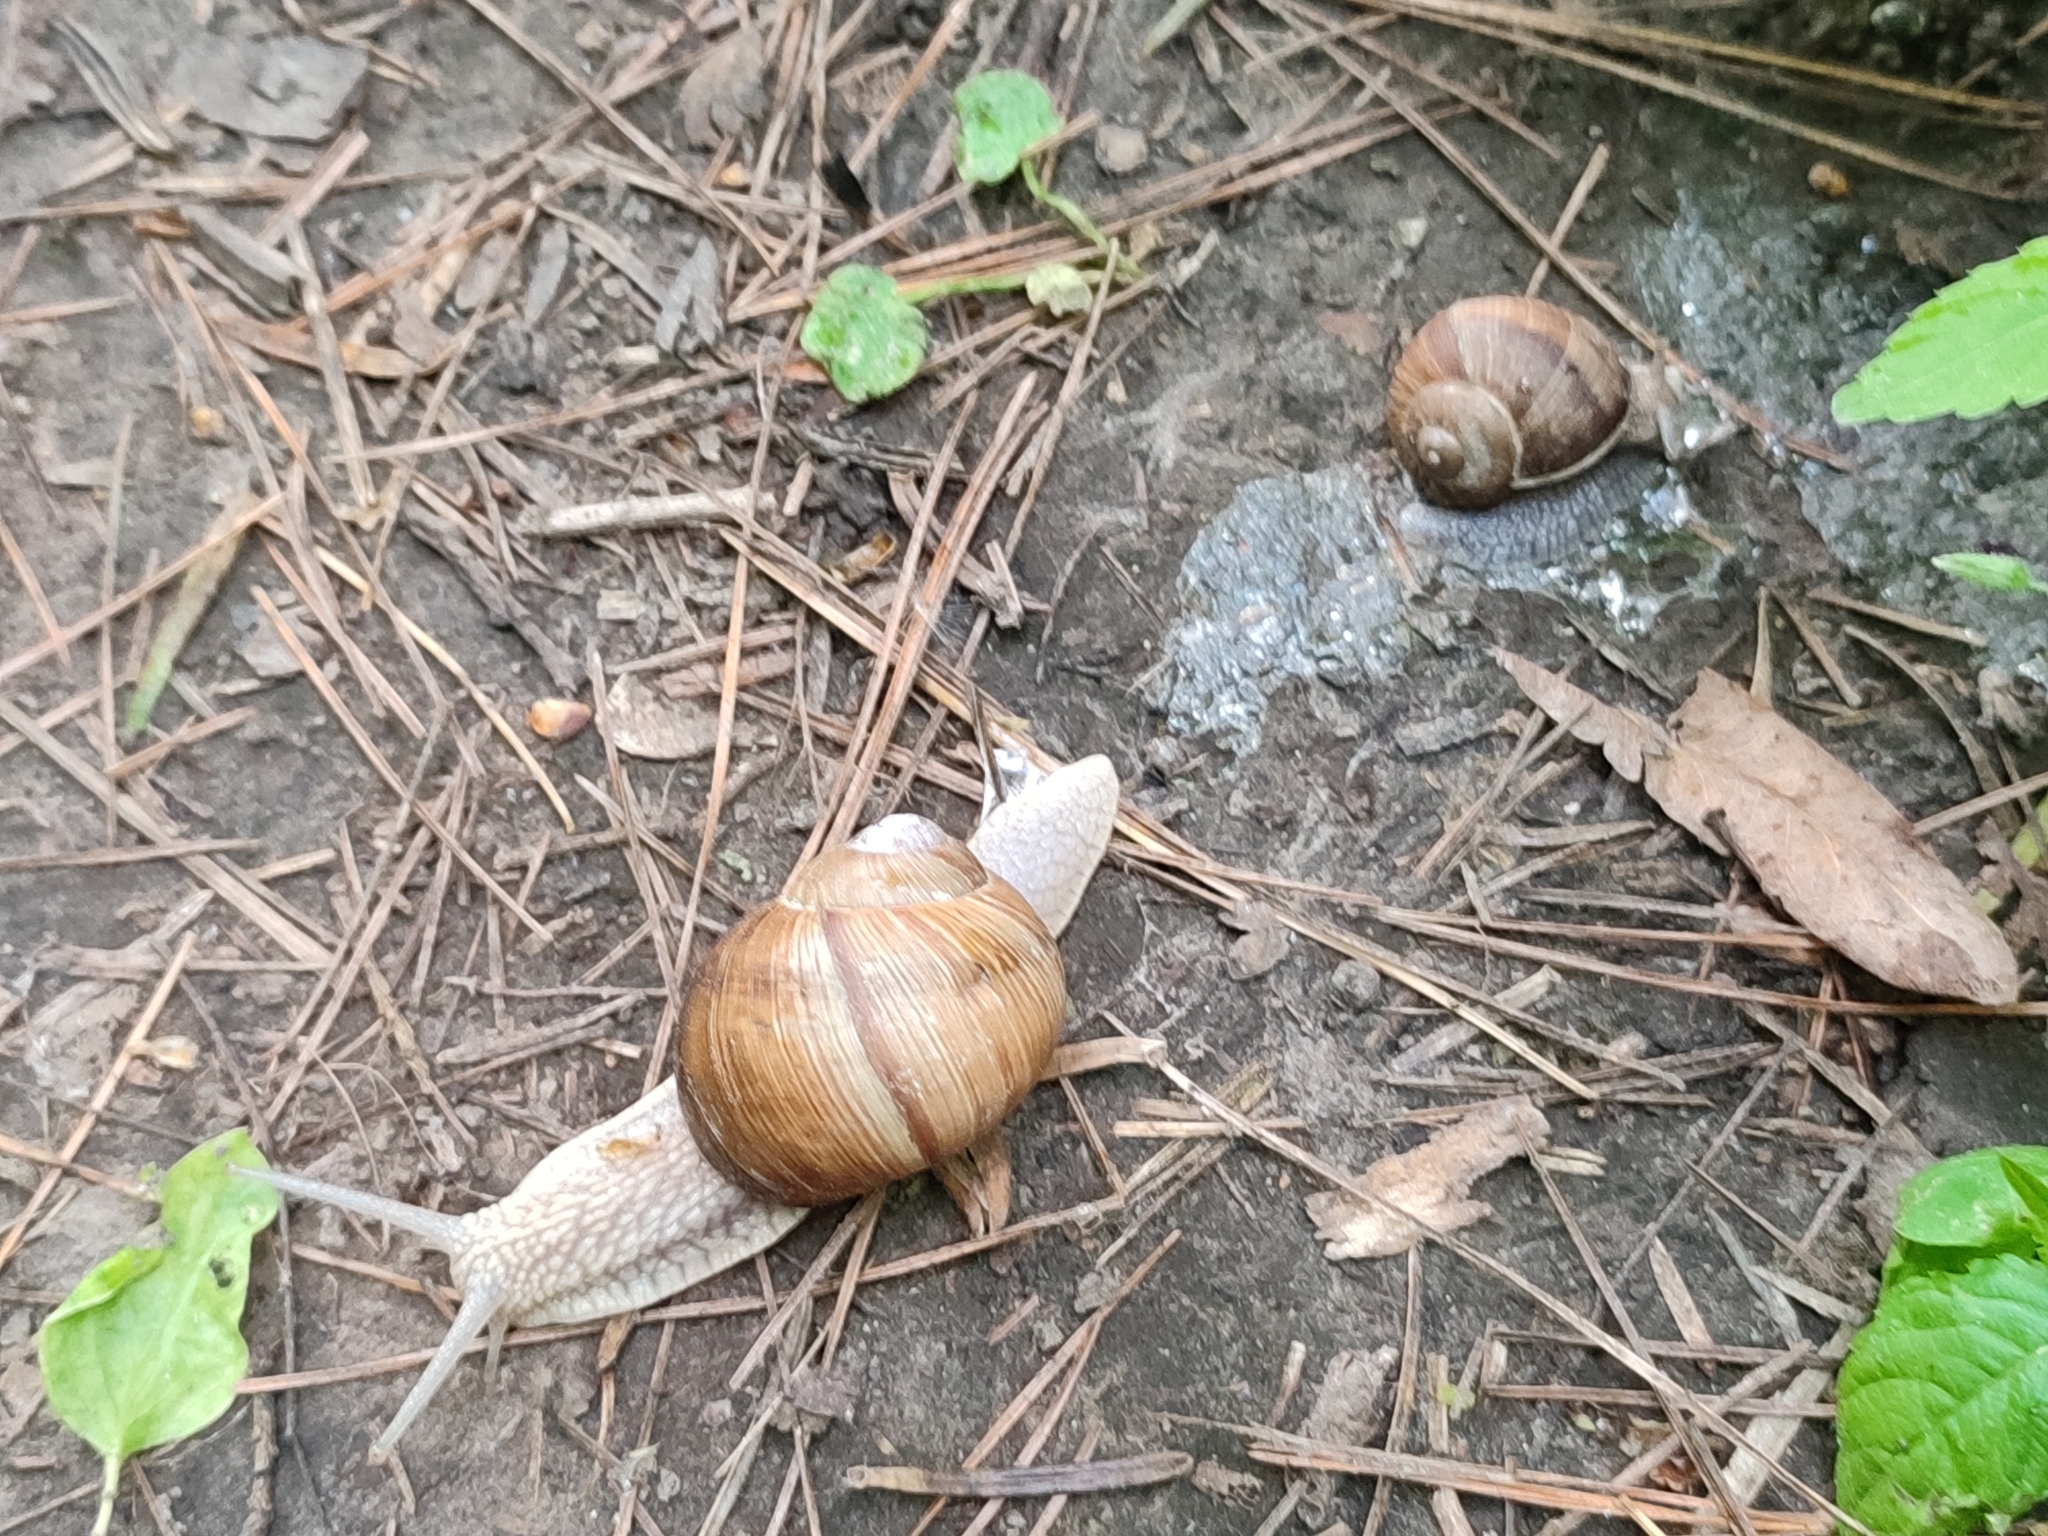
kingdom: Animalia
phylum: Mollusca
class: Gastropoda
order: Stylommatophora
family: Helicidae
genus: Helix
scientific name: Helix pomatia
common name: Roman snail
